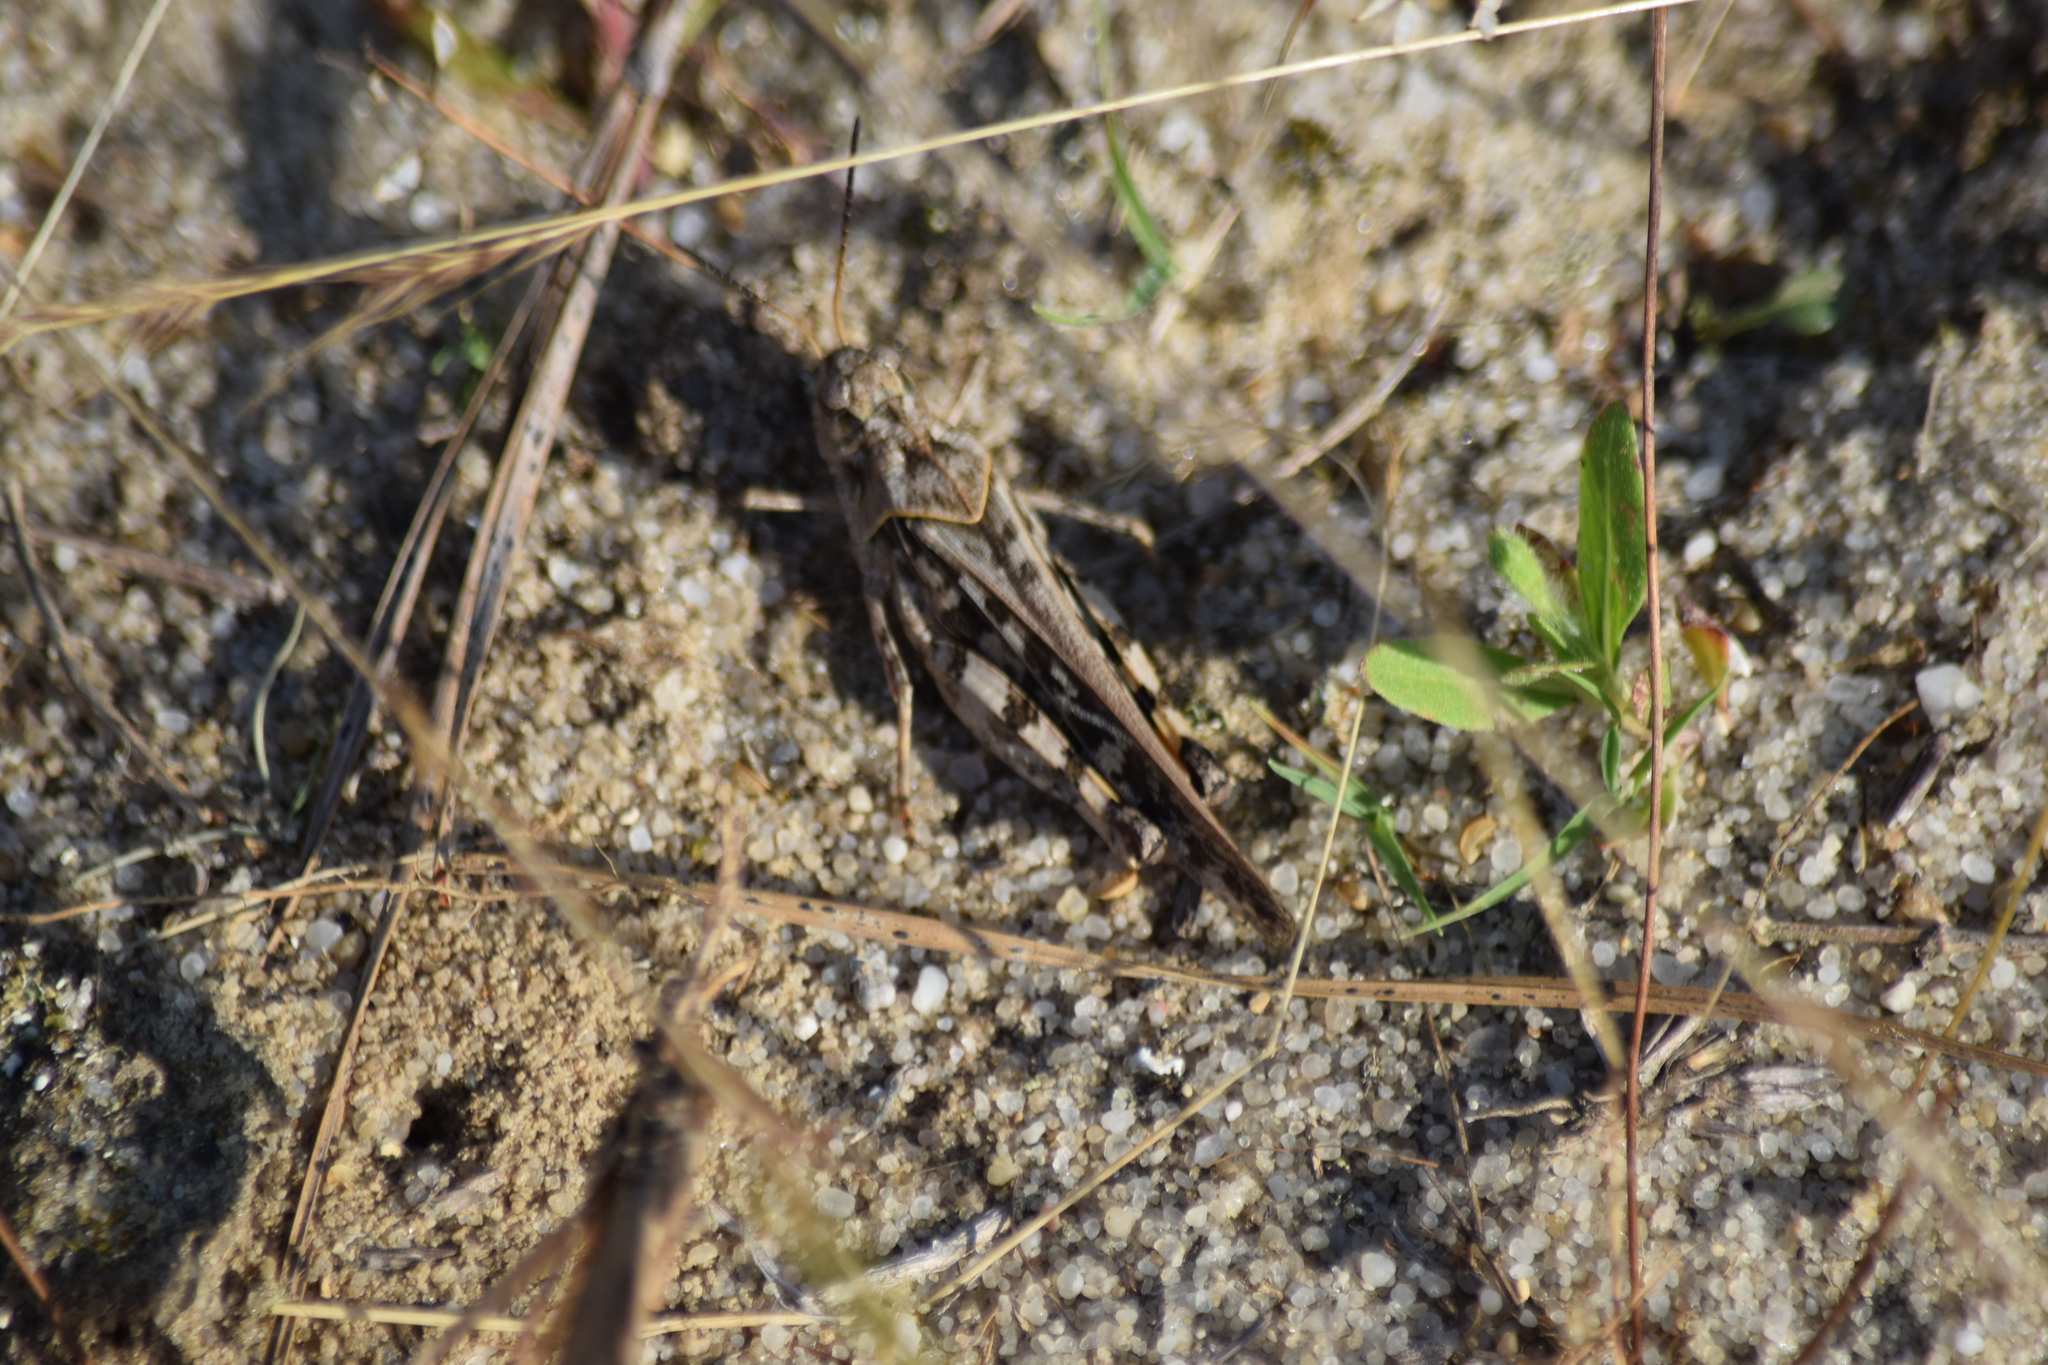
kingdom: Animalia
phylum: Arthropoda
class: Insecta
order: Orthoptera
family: Acrididae
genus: Pardalophora
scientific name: Pardalophora phoenicoptera
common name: Orange-winged grasshopper
